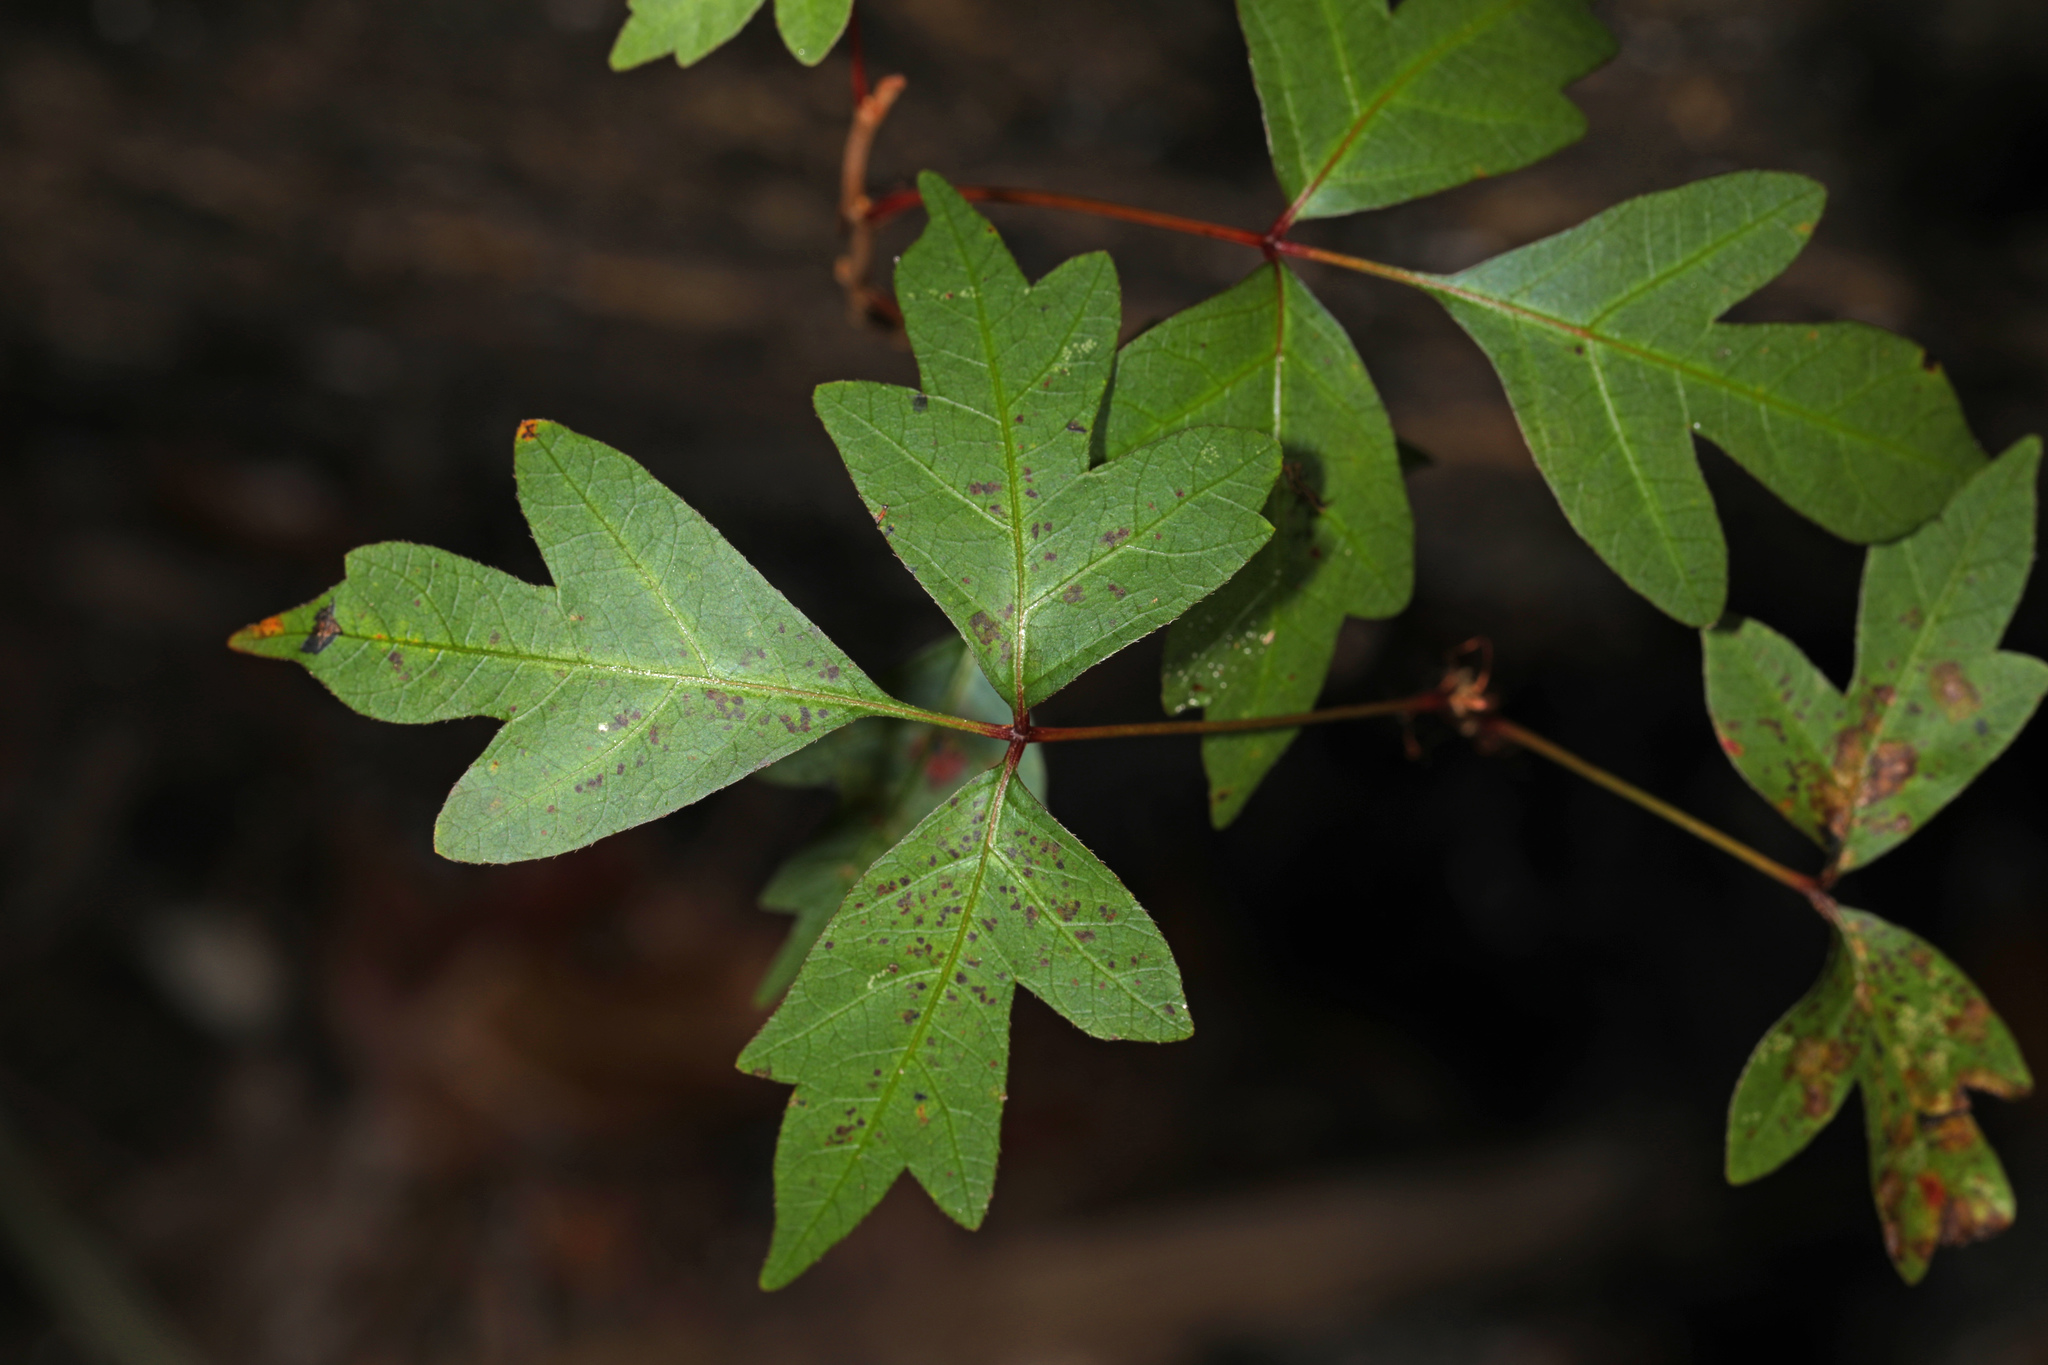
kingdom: Plantae
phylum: Tracheophyta
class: Magnoliopsida
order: Sapindales
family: Anacardiaceae
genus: Toxicodendron
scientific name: Toxicodendron radicans
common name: Poison ivy
